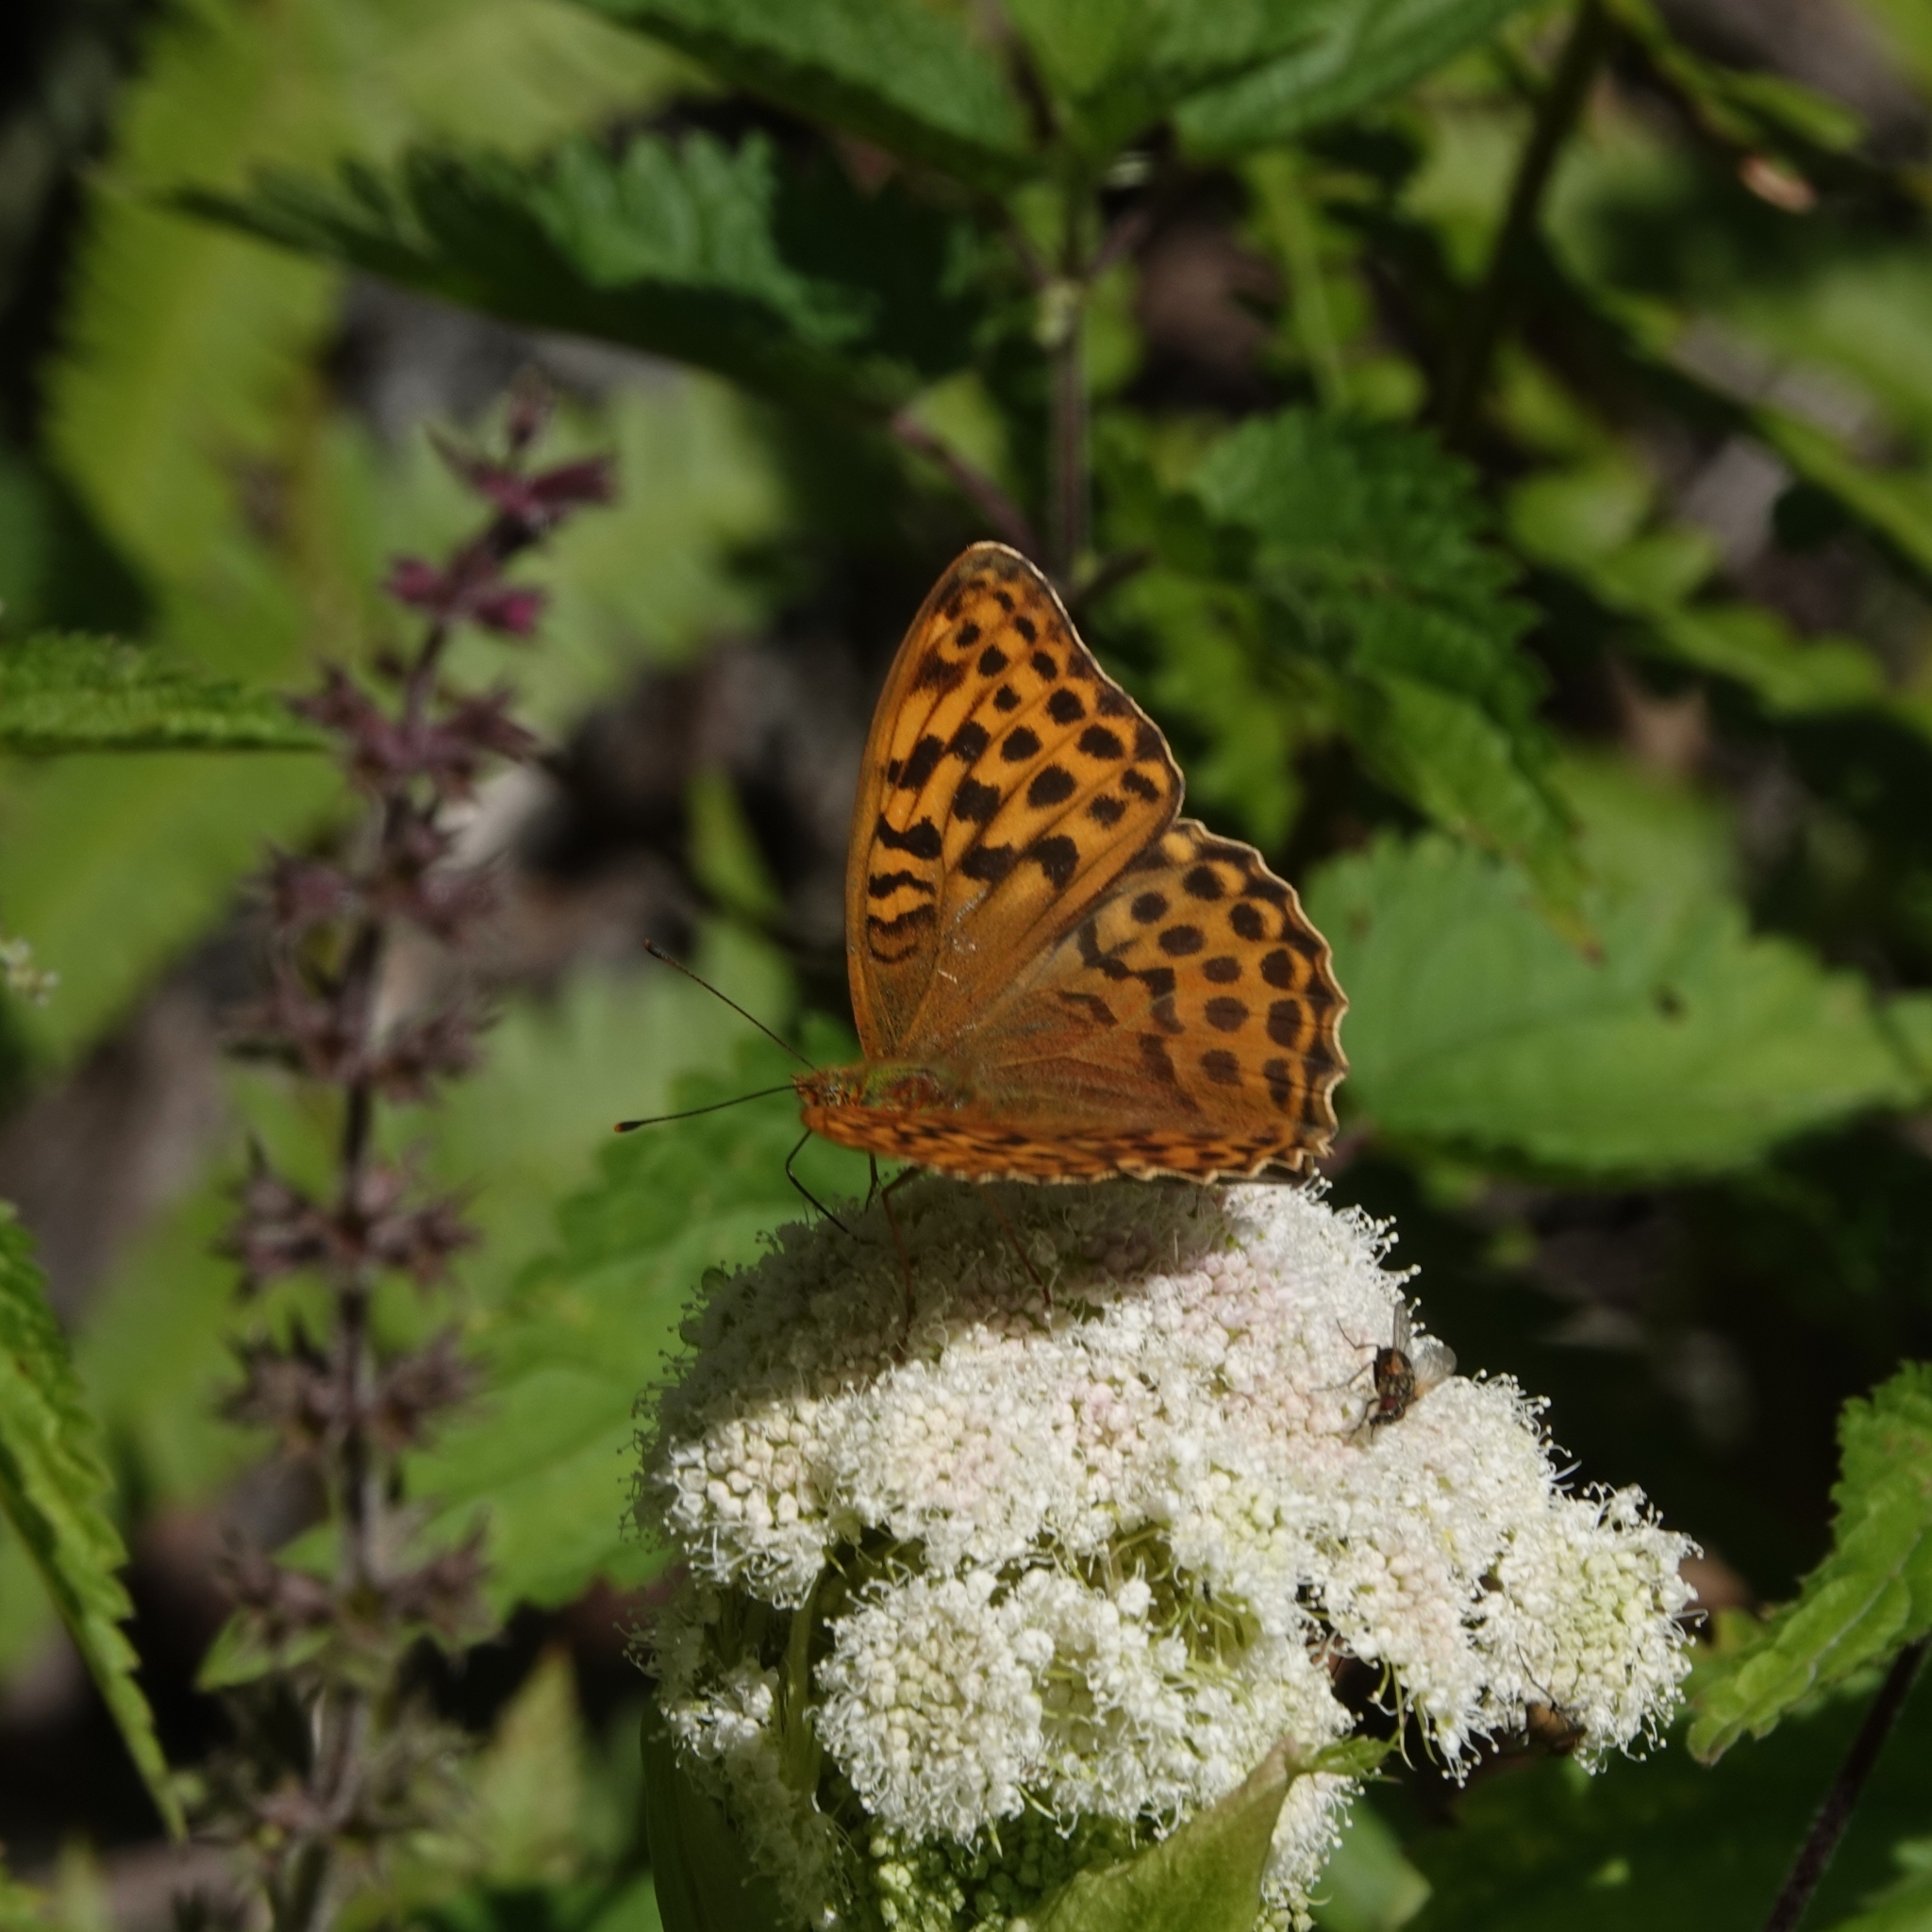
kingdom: Animalia
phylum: Arthropoda
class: Insecta
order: Lepidoptera
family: Nymphalidae
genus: Argynnis
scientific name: Argynnis paphia
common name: Silver-washed fritillary
